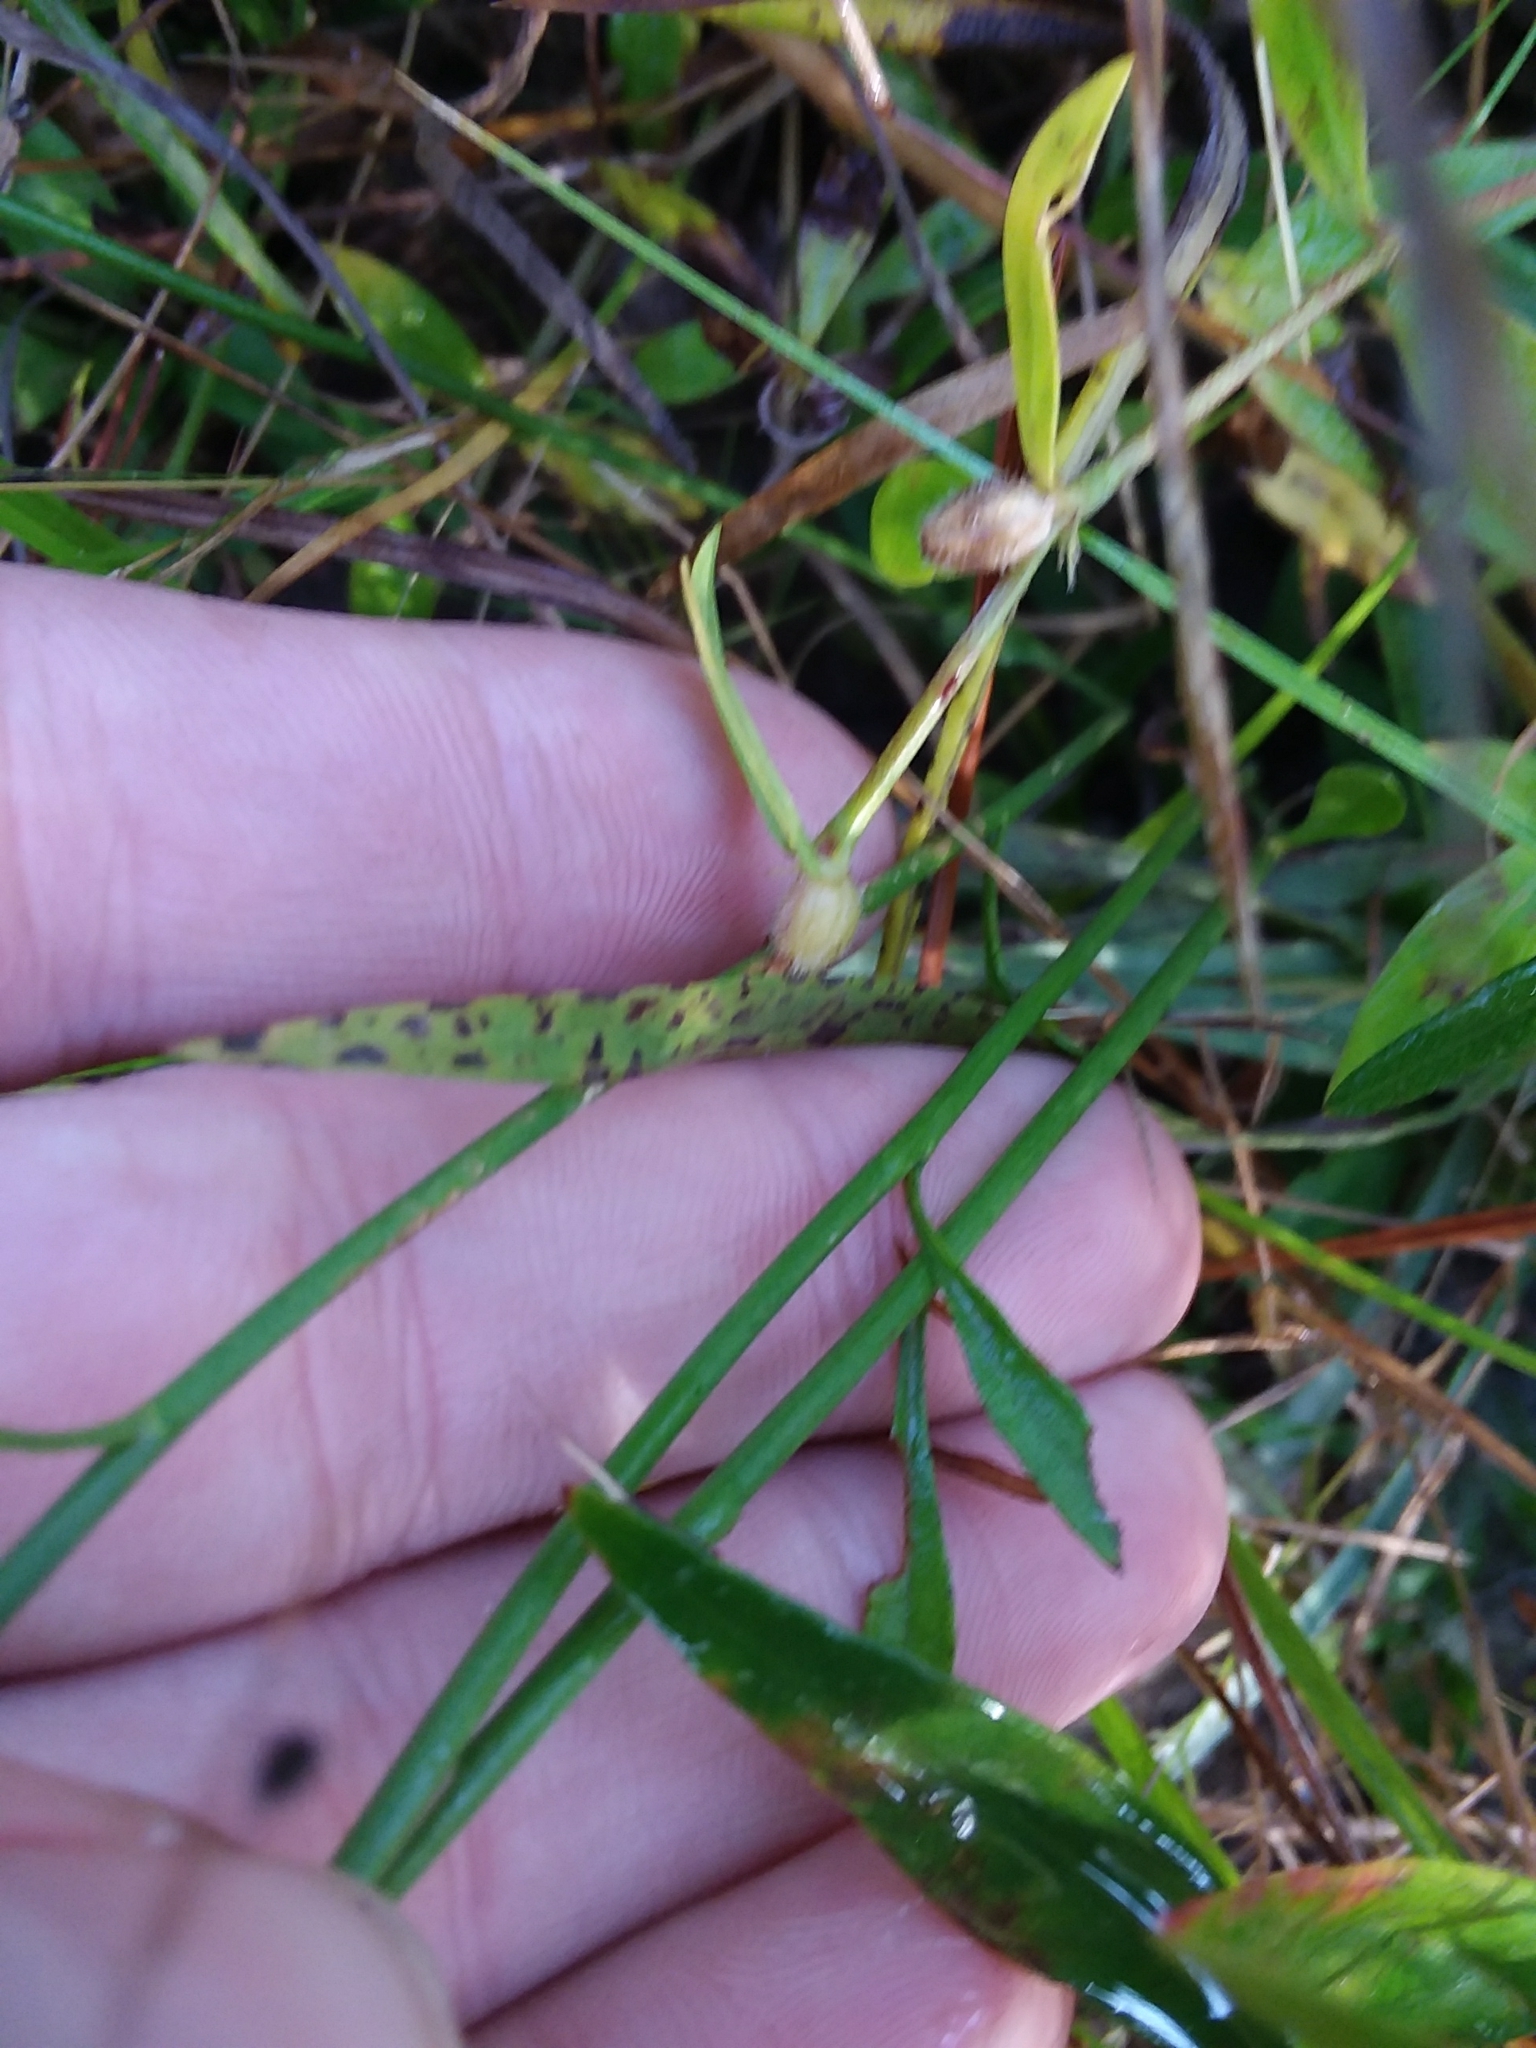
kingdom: Plantae
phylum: Tracheophyta
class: Magnoliopsida
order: Asterales
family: Asteraceae
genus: Bigelowia
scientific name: Bigelowia nudata
